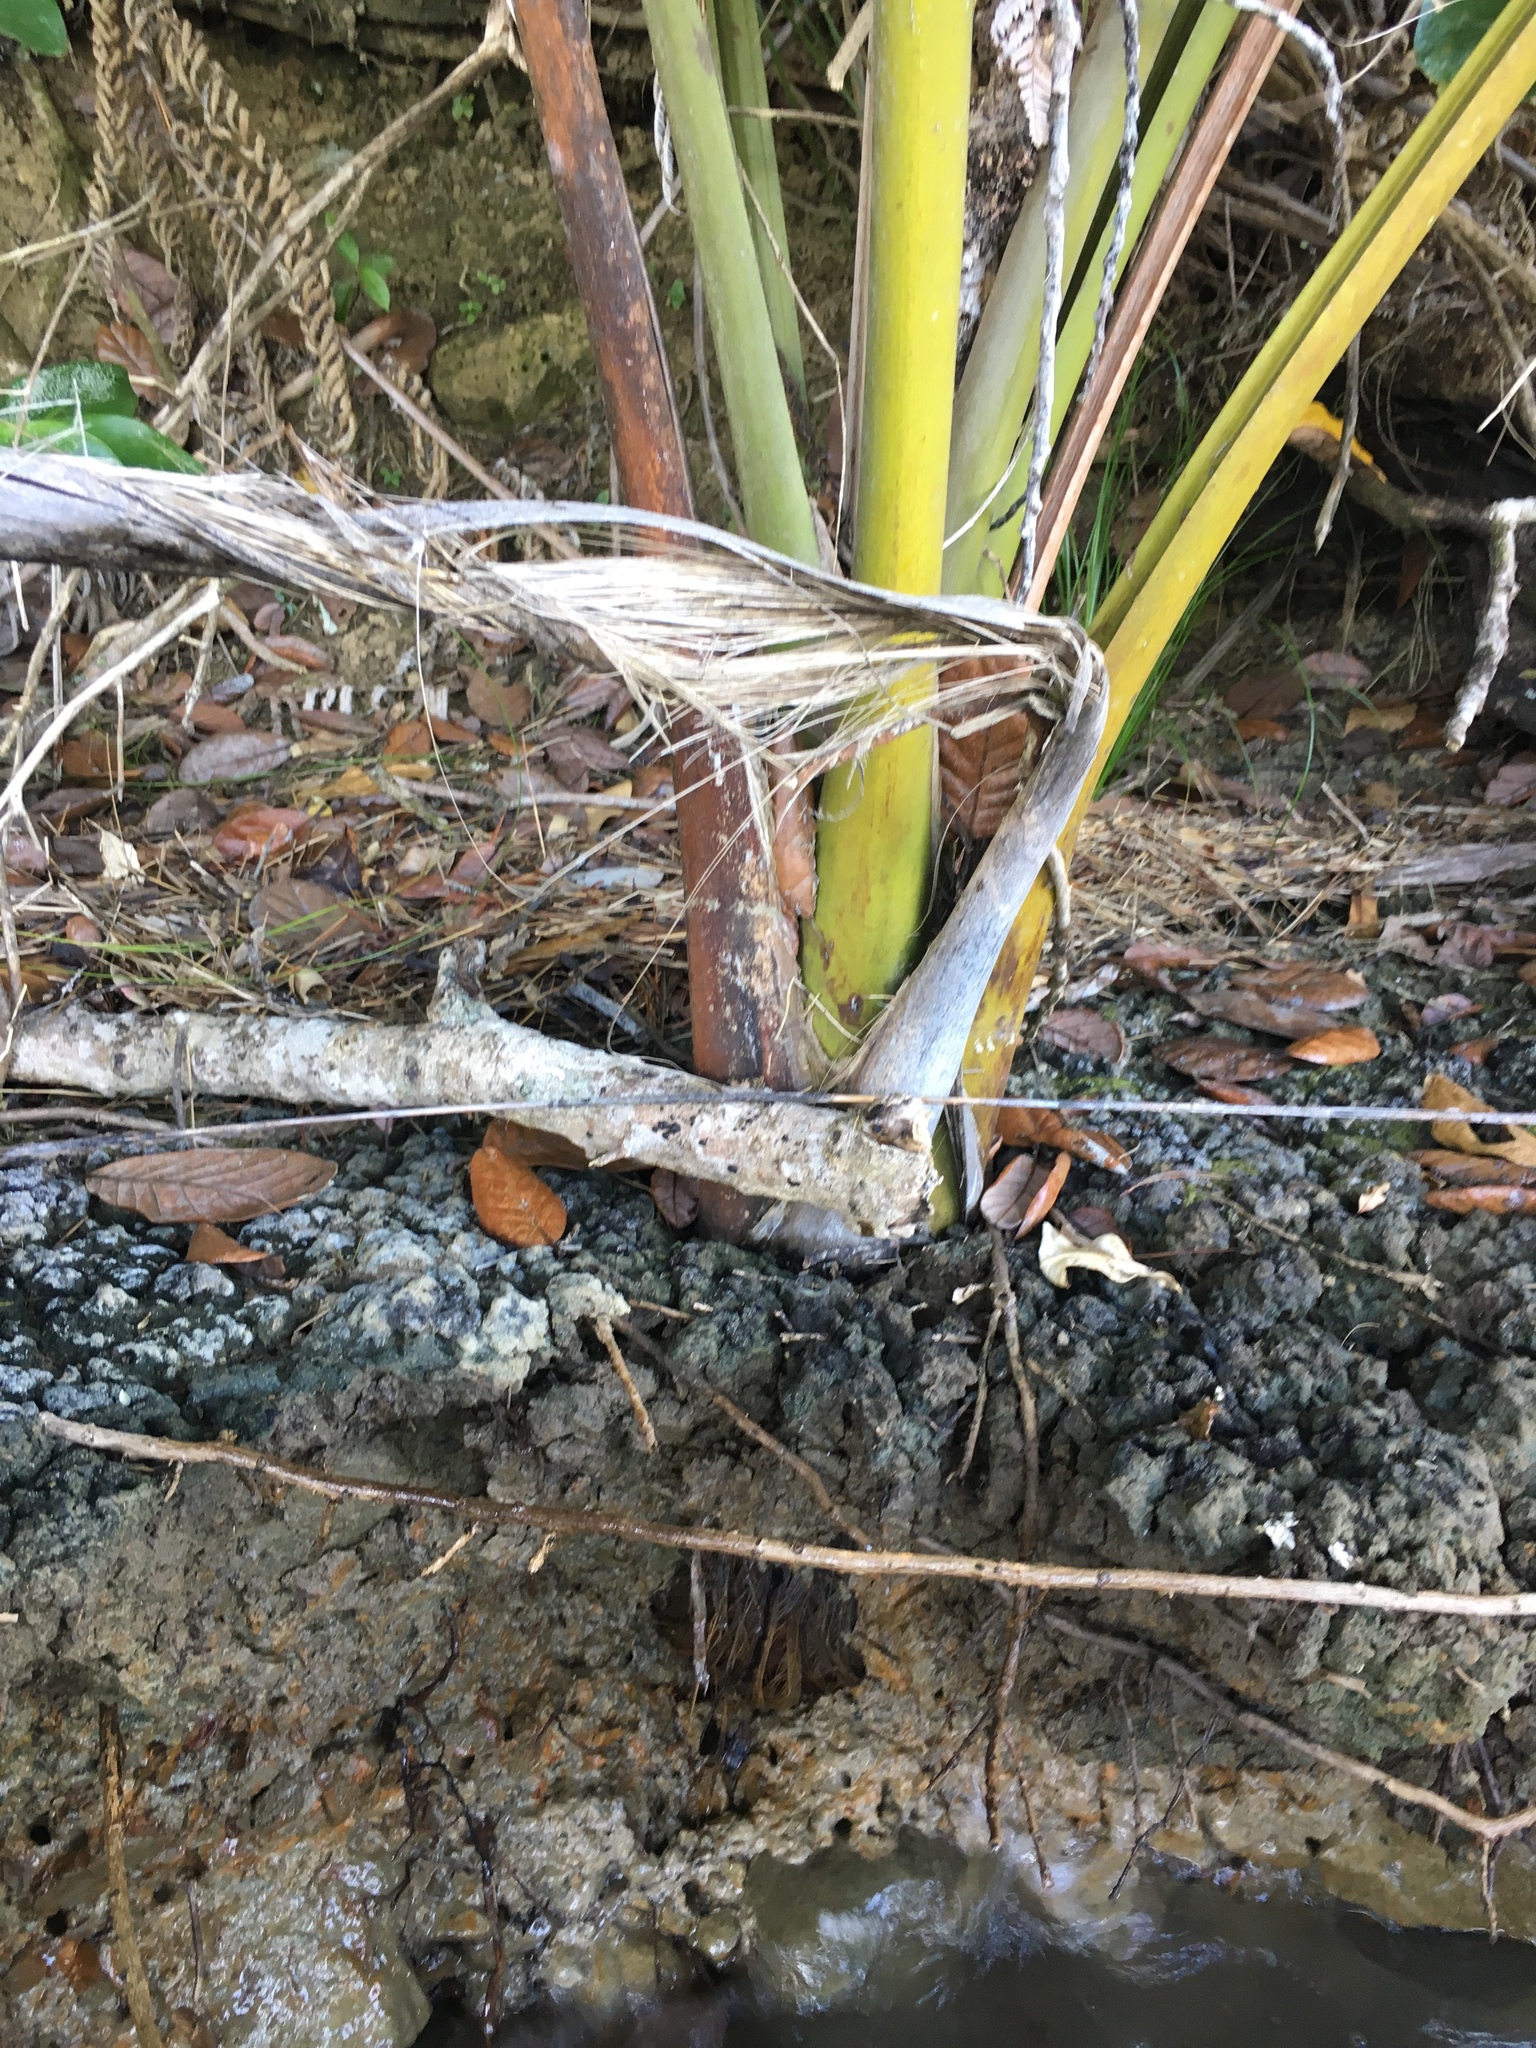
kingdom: Plantae
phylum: Tracheophyta
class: Liliopsida
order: Arecales
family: Arecaceae
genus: Rhopalostylis
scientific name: Rhopalostylis sapida
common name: Feather-duster palm
